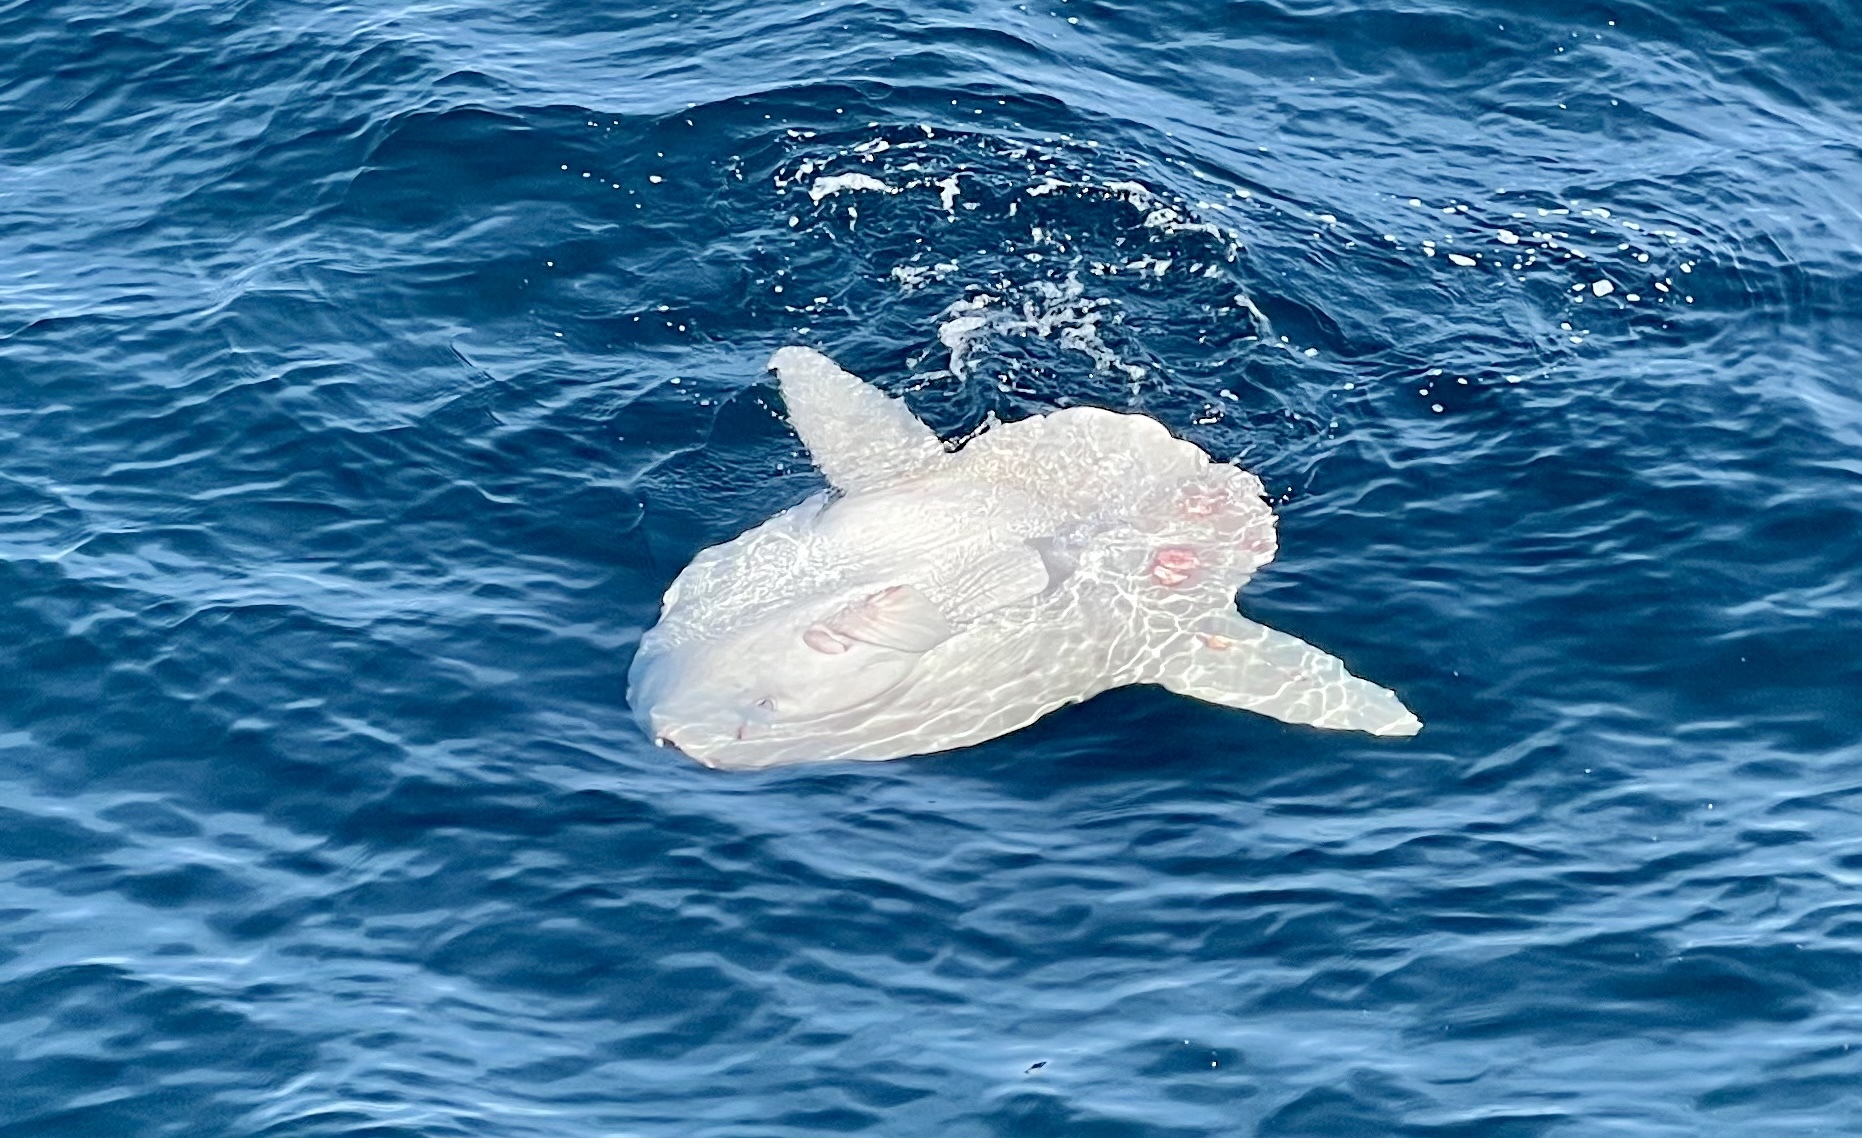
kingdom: Animalia
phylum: Chordata
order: Tetraodontiformes
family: Molidae
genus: Mola
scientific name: Mola mola
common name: Ocean sunfish
